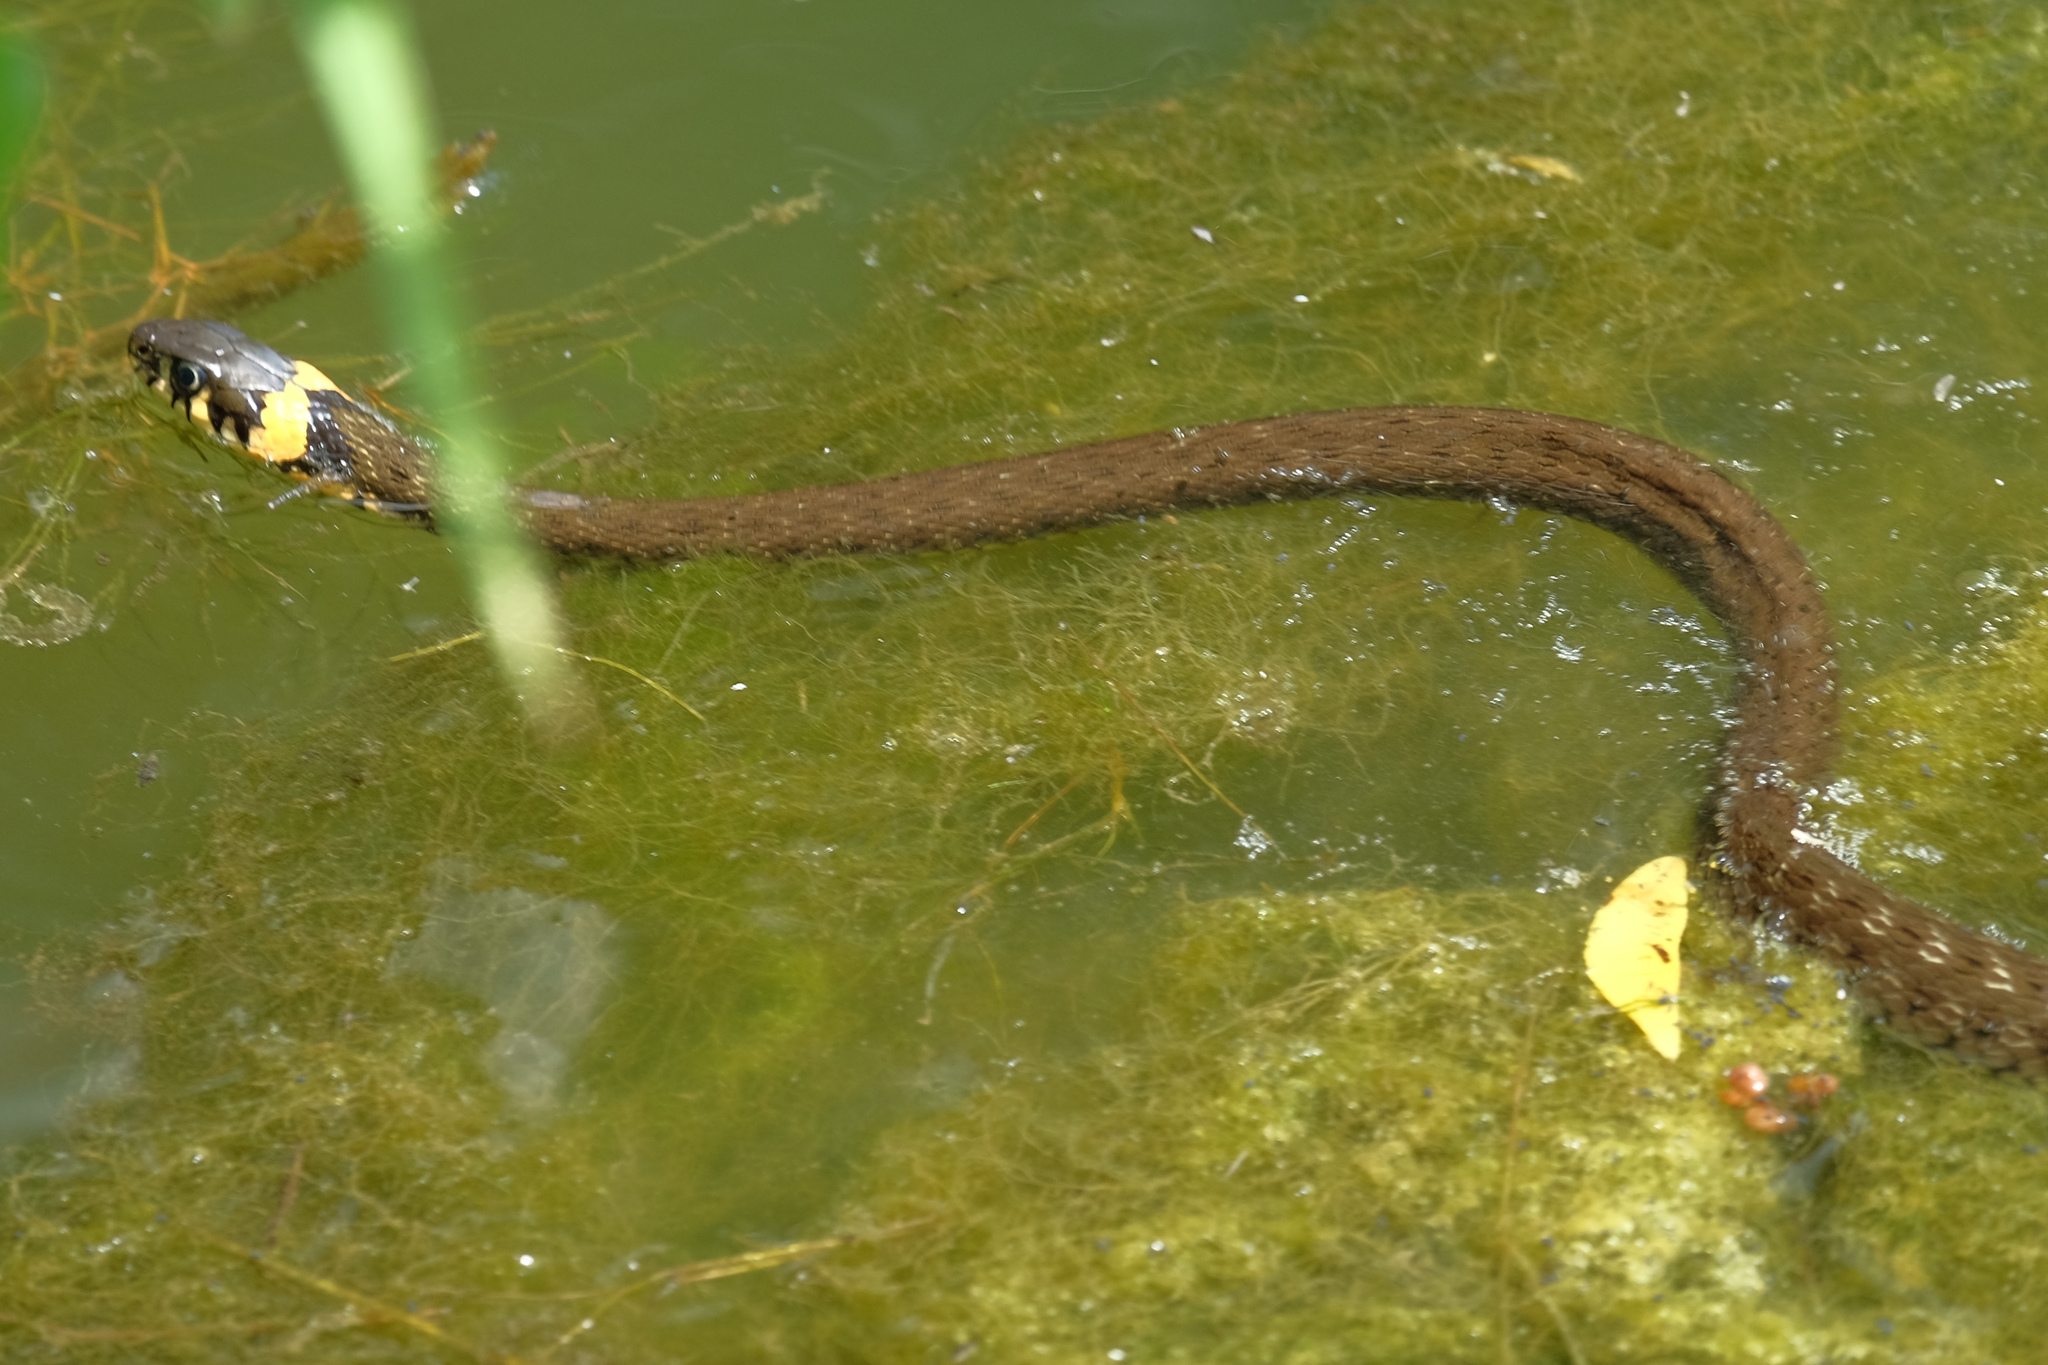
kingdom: Animalia
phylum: Chordata
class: Squamata
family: Colubridae
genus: Natrix
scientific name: Natrix natrix
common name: Grass snake
